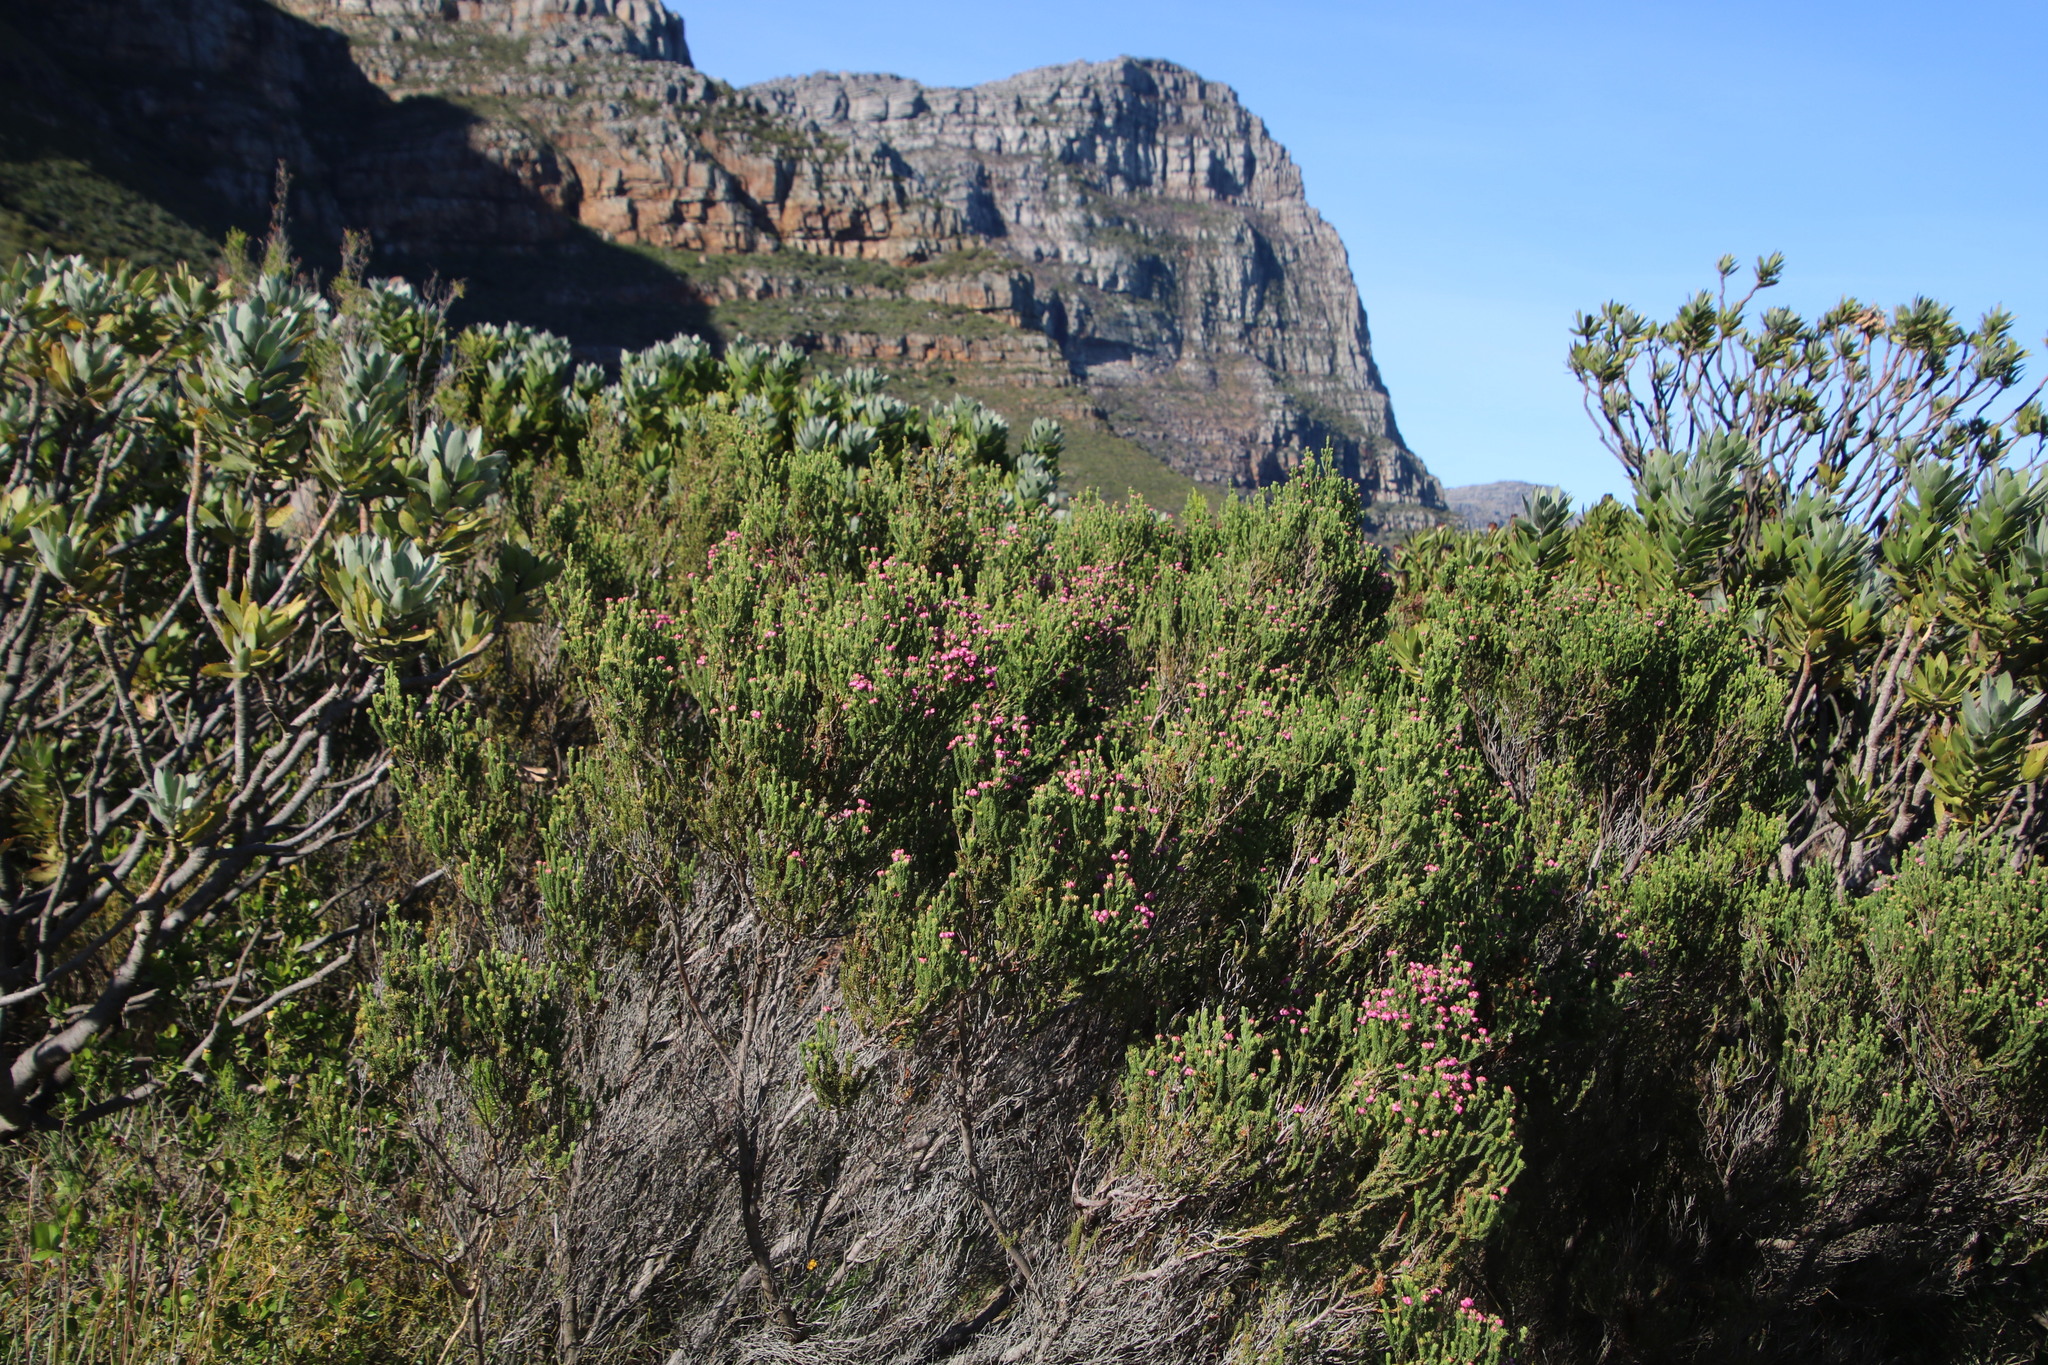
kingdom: Plantae
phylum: Tracheophyta
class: Magnoliopsida
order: Ericales
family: Ericaceae
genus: Erica
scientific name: Erica baccans
